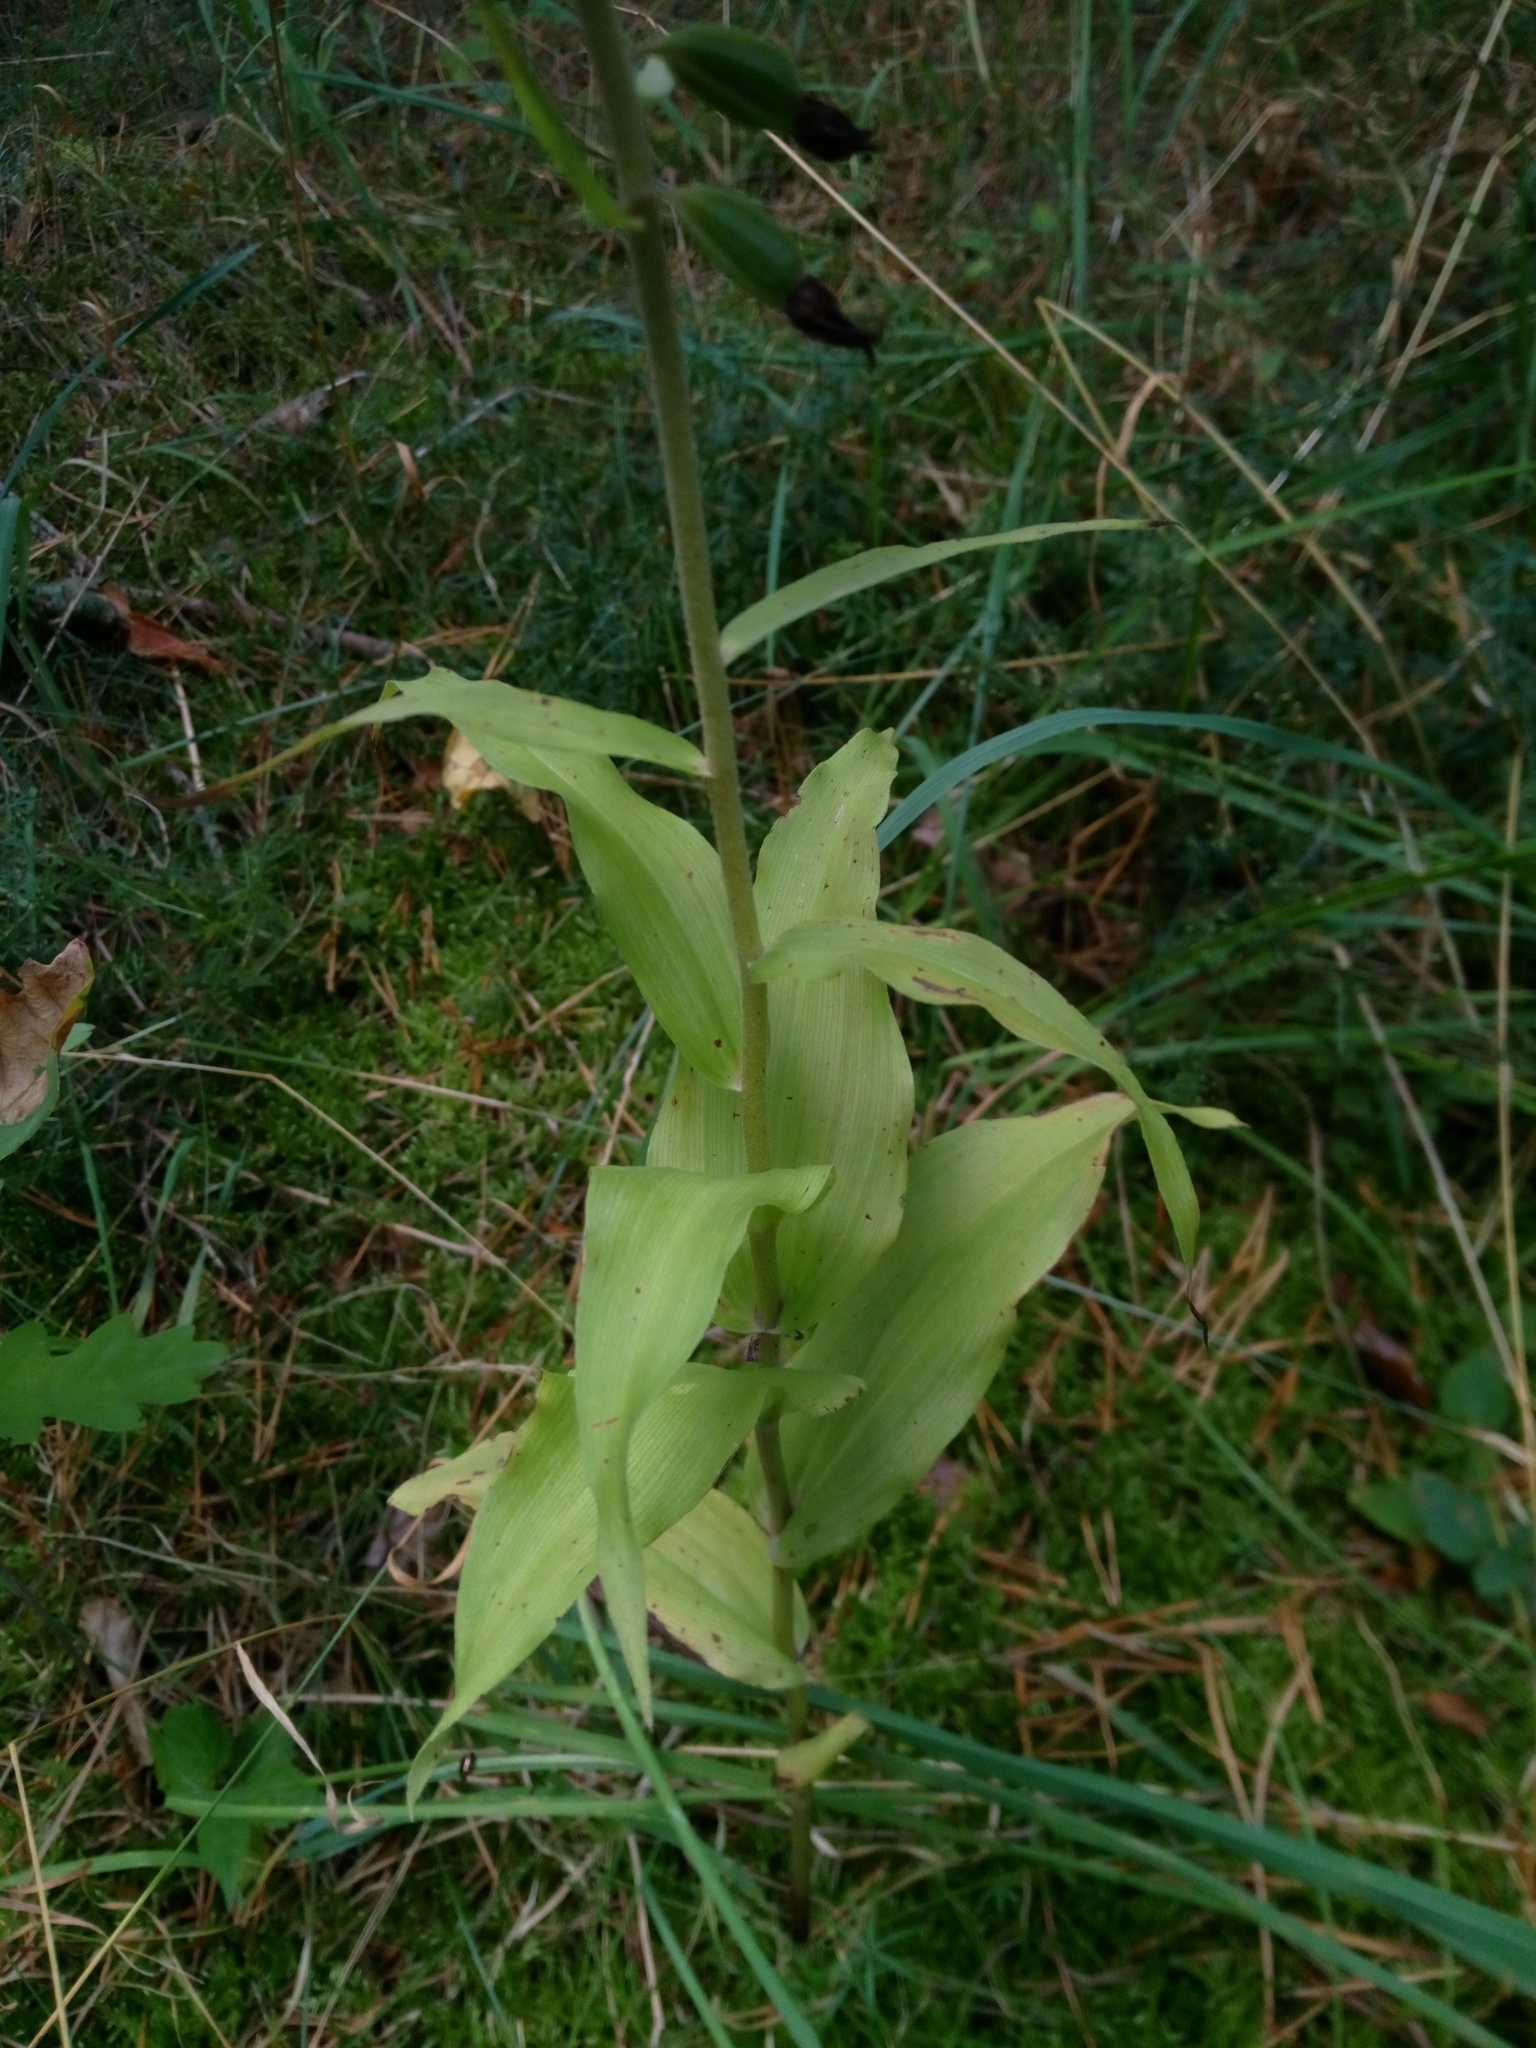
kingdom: Plantae
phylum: Tracheophyta
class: Liliopsida
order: Asparagales
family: Orchidaceae
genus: Epipactis
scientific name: Epipactis helleborine
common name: Broad-leaved helleborine
